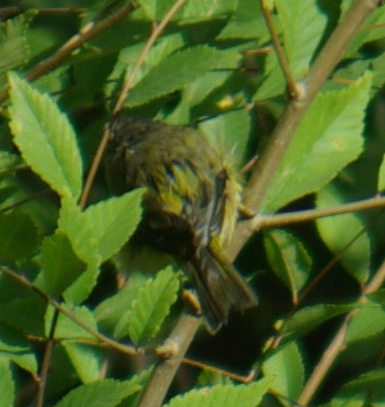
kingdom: Animalia
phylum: Chordata
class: Aves
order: Passeriformes
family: Parulidae
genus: Leiothlypis
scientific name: Leiothlypis ruficapilla
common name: Nashville warbler
